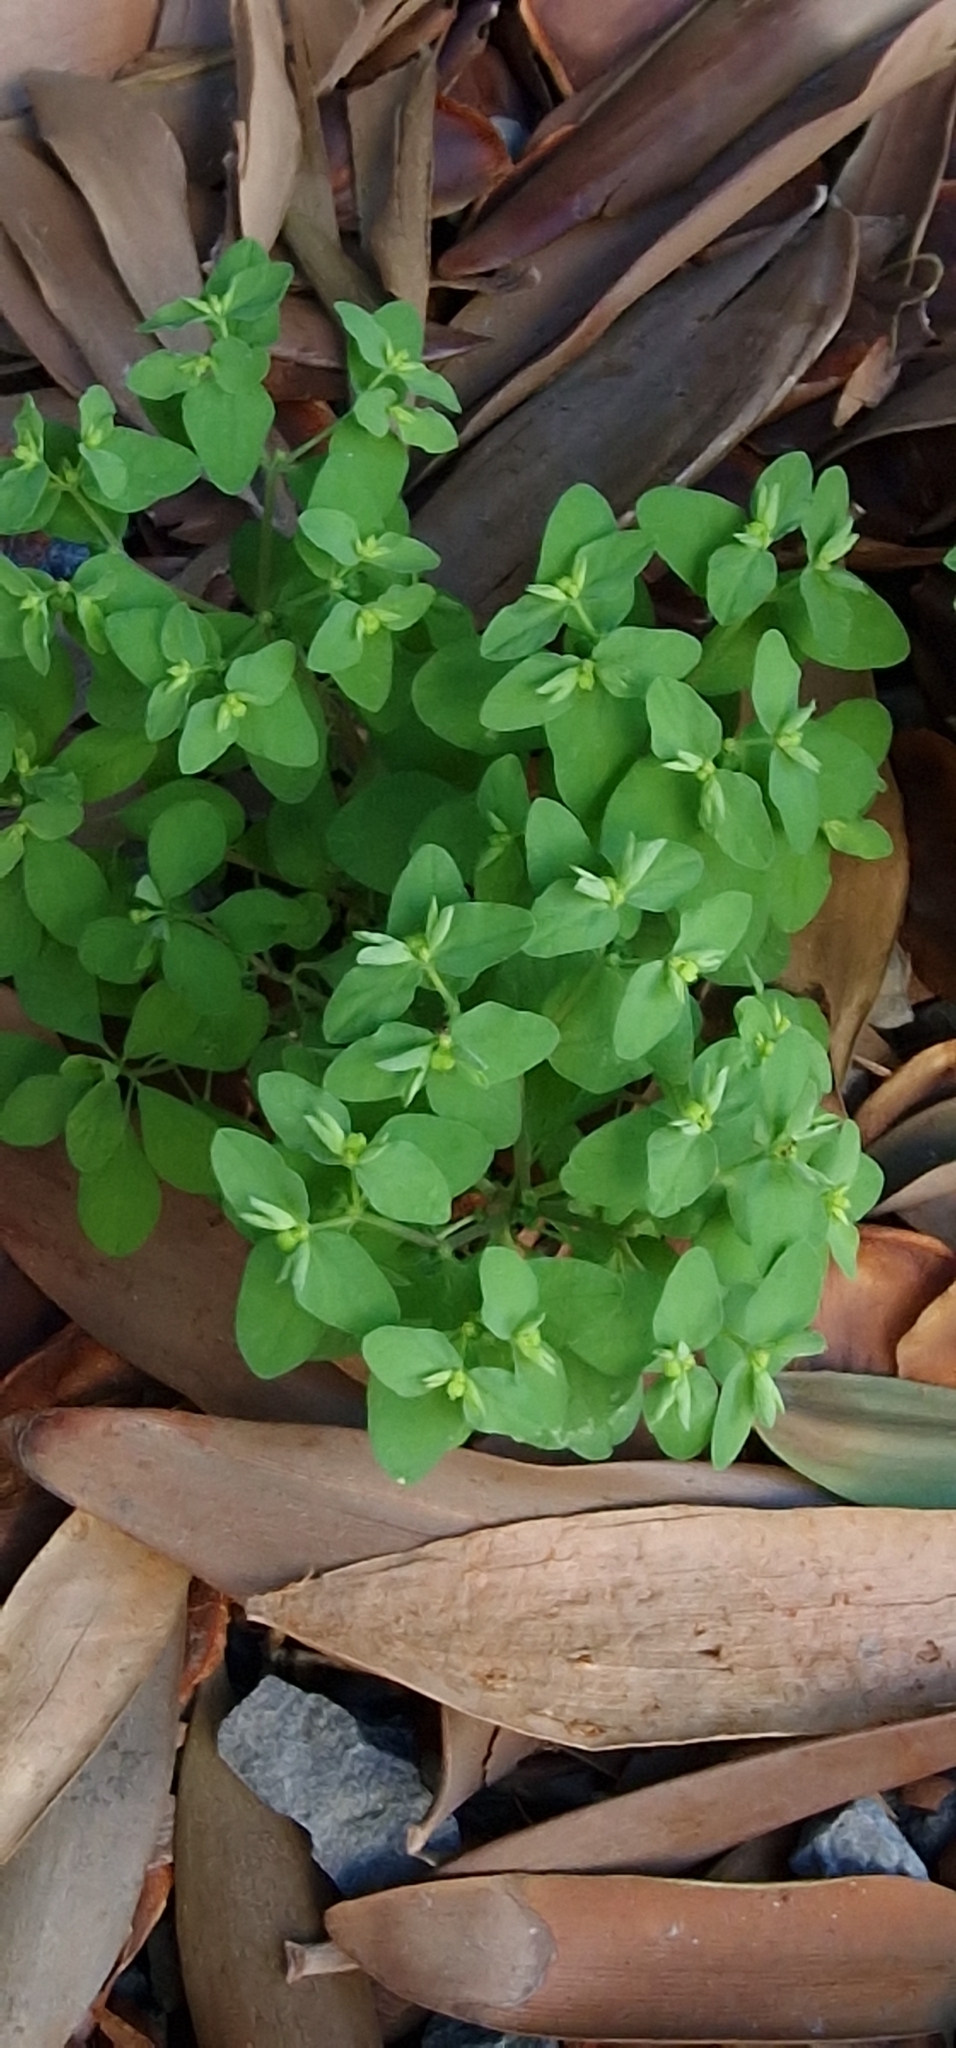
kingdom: Plantae
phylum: Tracheophyta
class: Magnoliopsida
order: Malpighiales
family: Euphorbiaceae
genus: Euphorbia
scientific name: Euphorbia peplus
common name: Petty spurge
